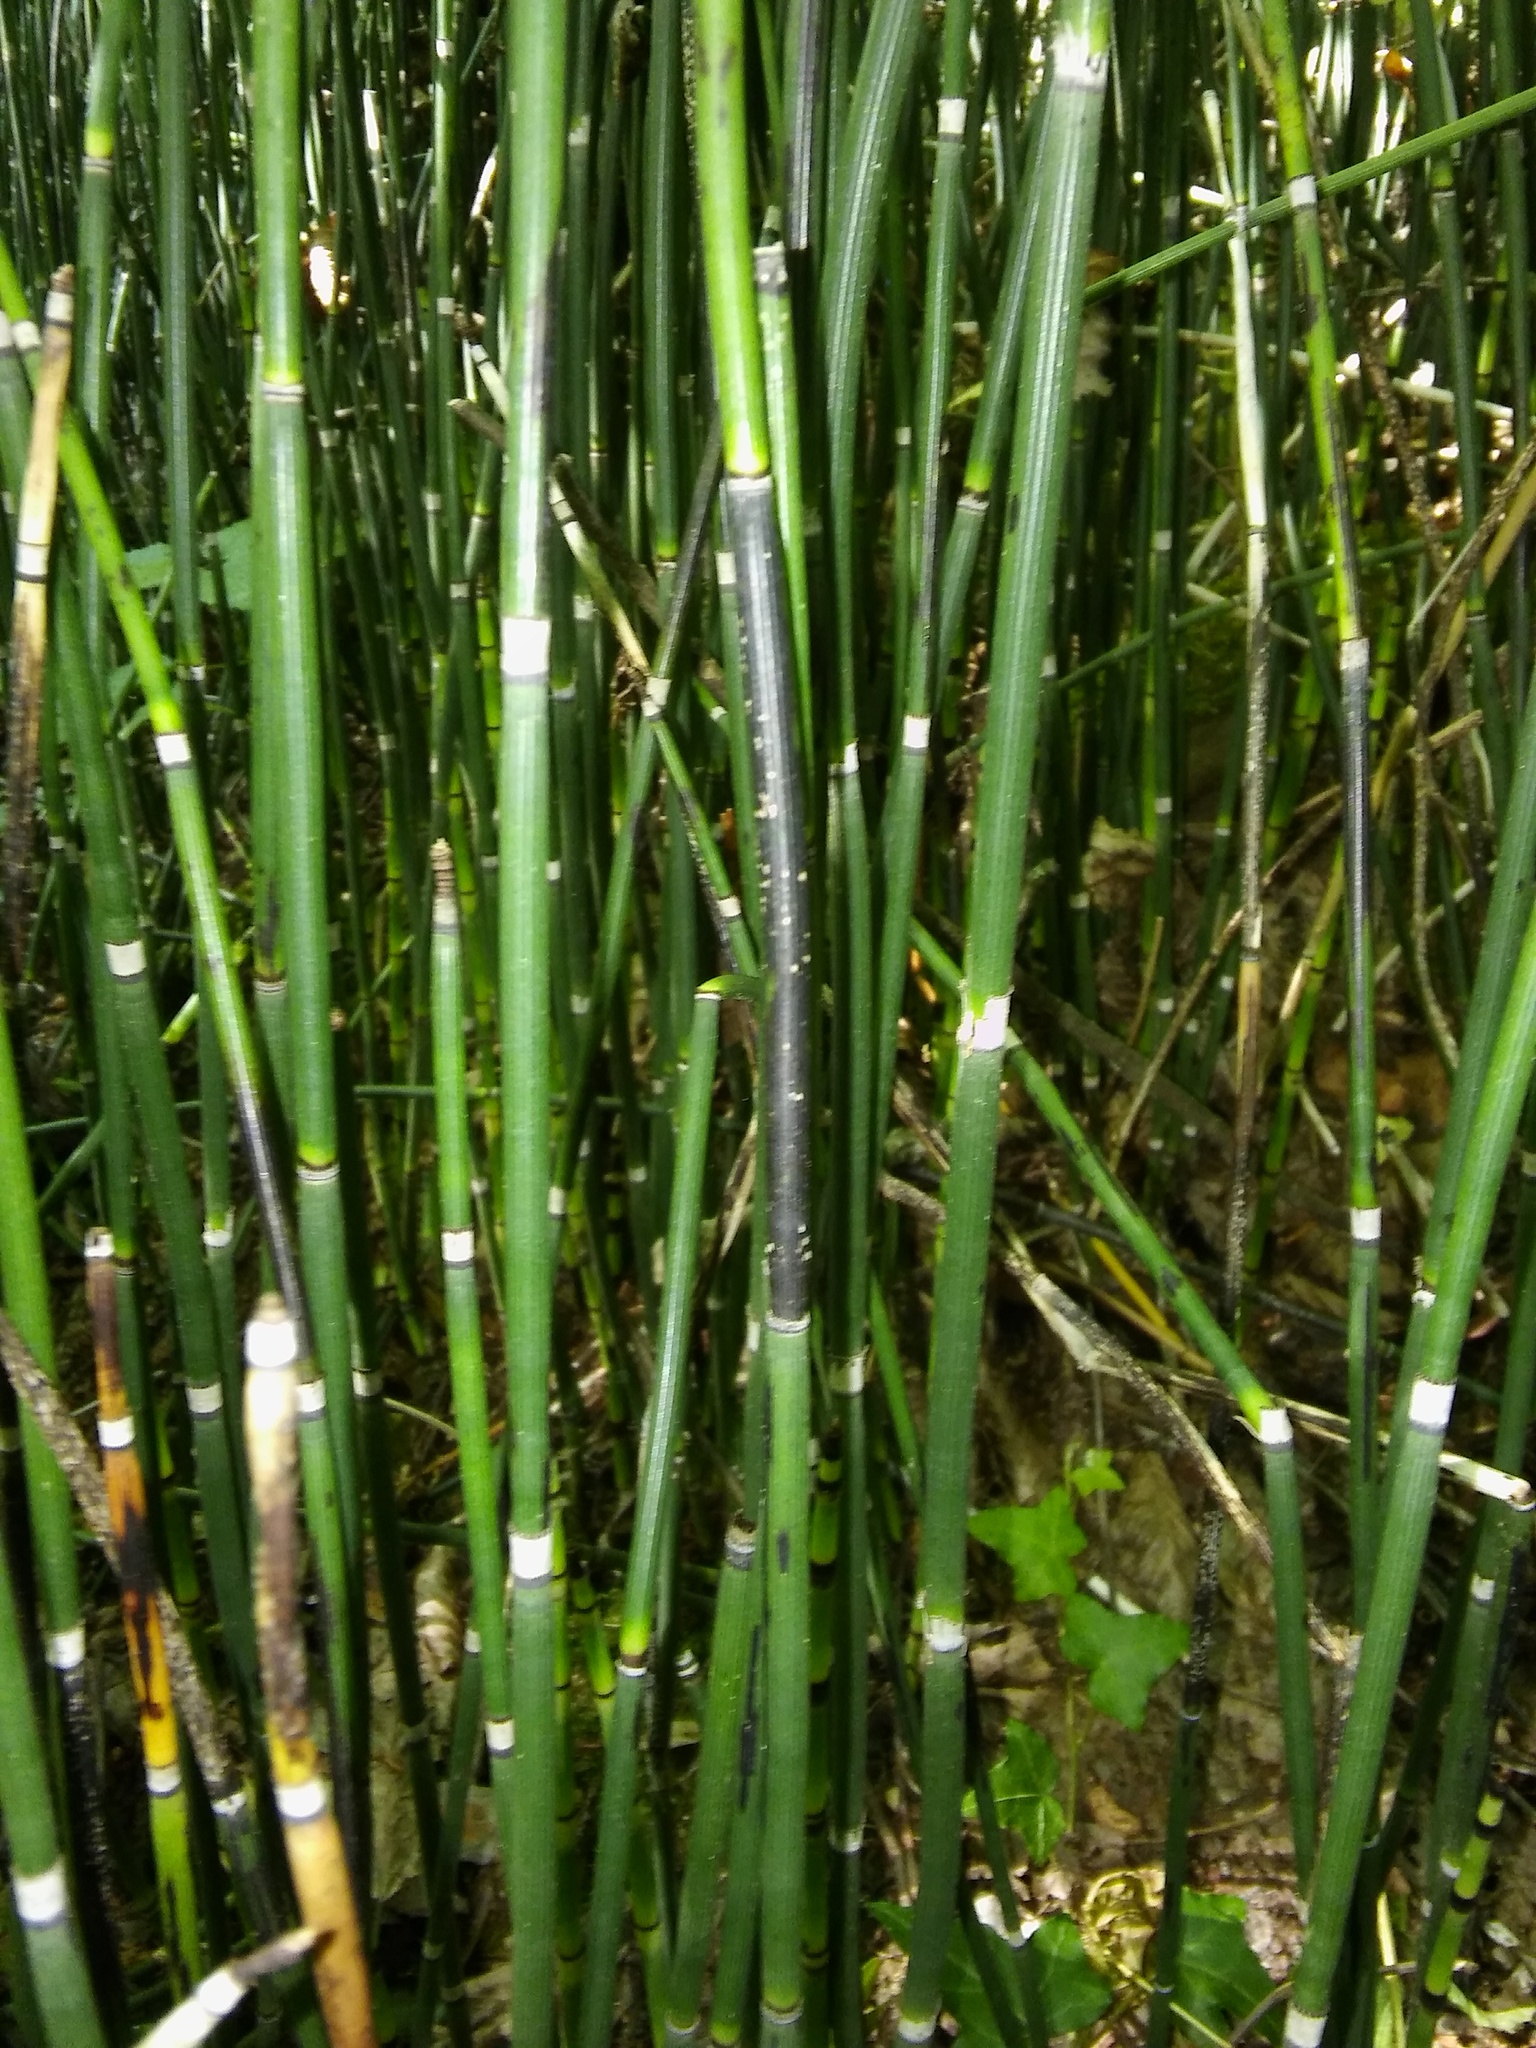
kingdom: Plantae
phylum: Tracheophyta
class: Polypodiopsida
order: Equisetales
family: Equisetaceae
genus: Equisetum
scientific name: Equisetum hyemale
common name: Rough horsetail
